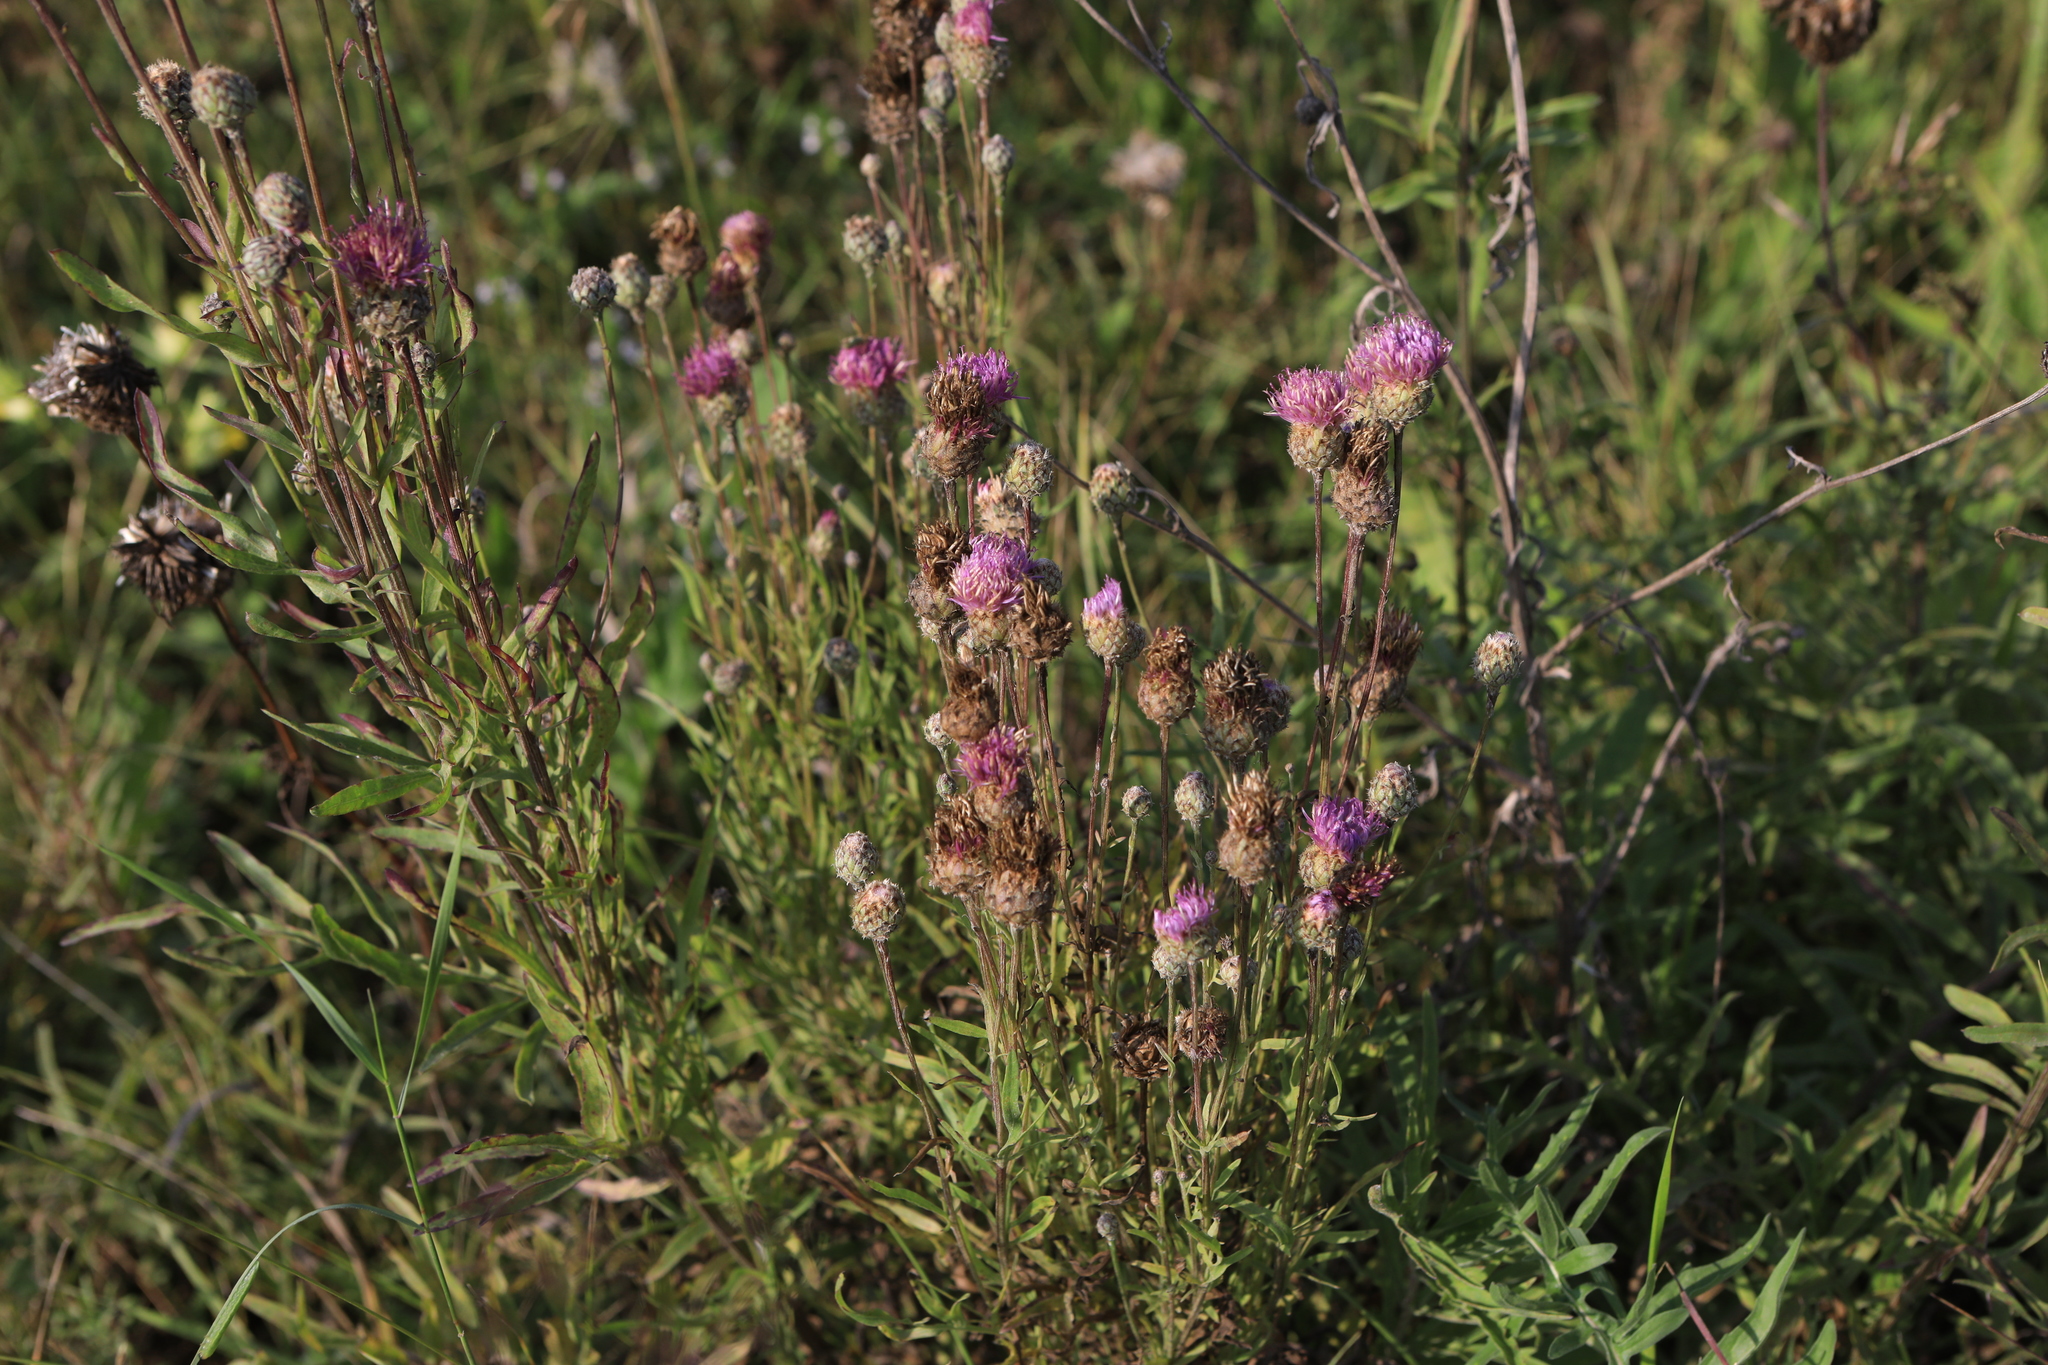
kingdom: Plantae
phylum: Tracheophyta
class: Magnoliopsida
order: Asterales
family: Asteraceae
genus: Centaurea
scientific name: Centaurea scabiosa
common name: Greater knapweed
